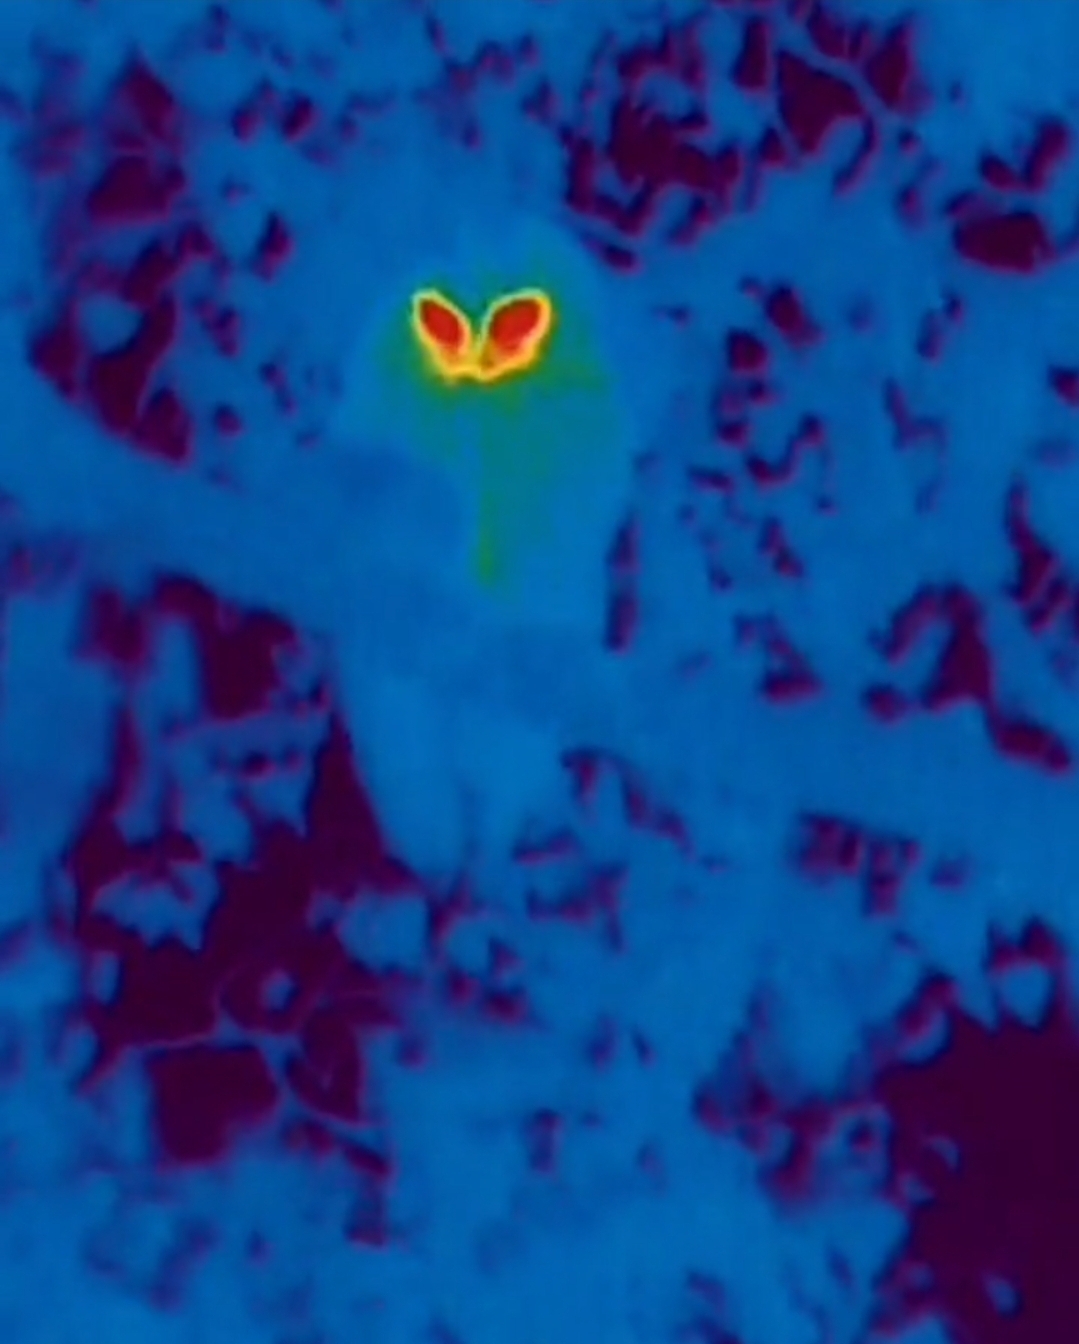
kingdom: Animalia
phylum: Chordata
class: Aves
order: Strigiformes
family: Strigidae
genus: Strix
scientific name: Strix aluco
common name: Tawny owl
